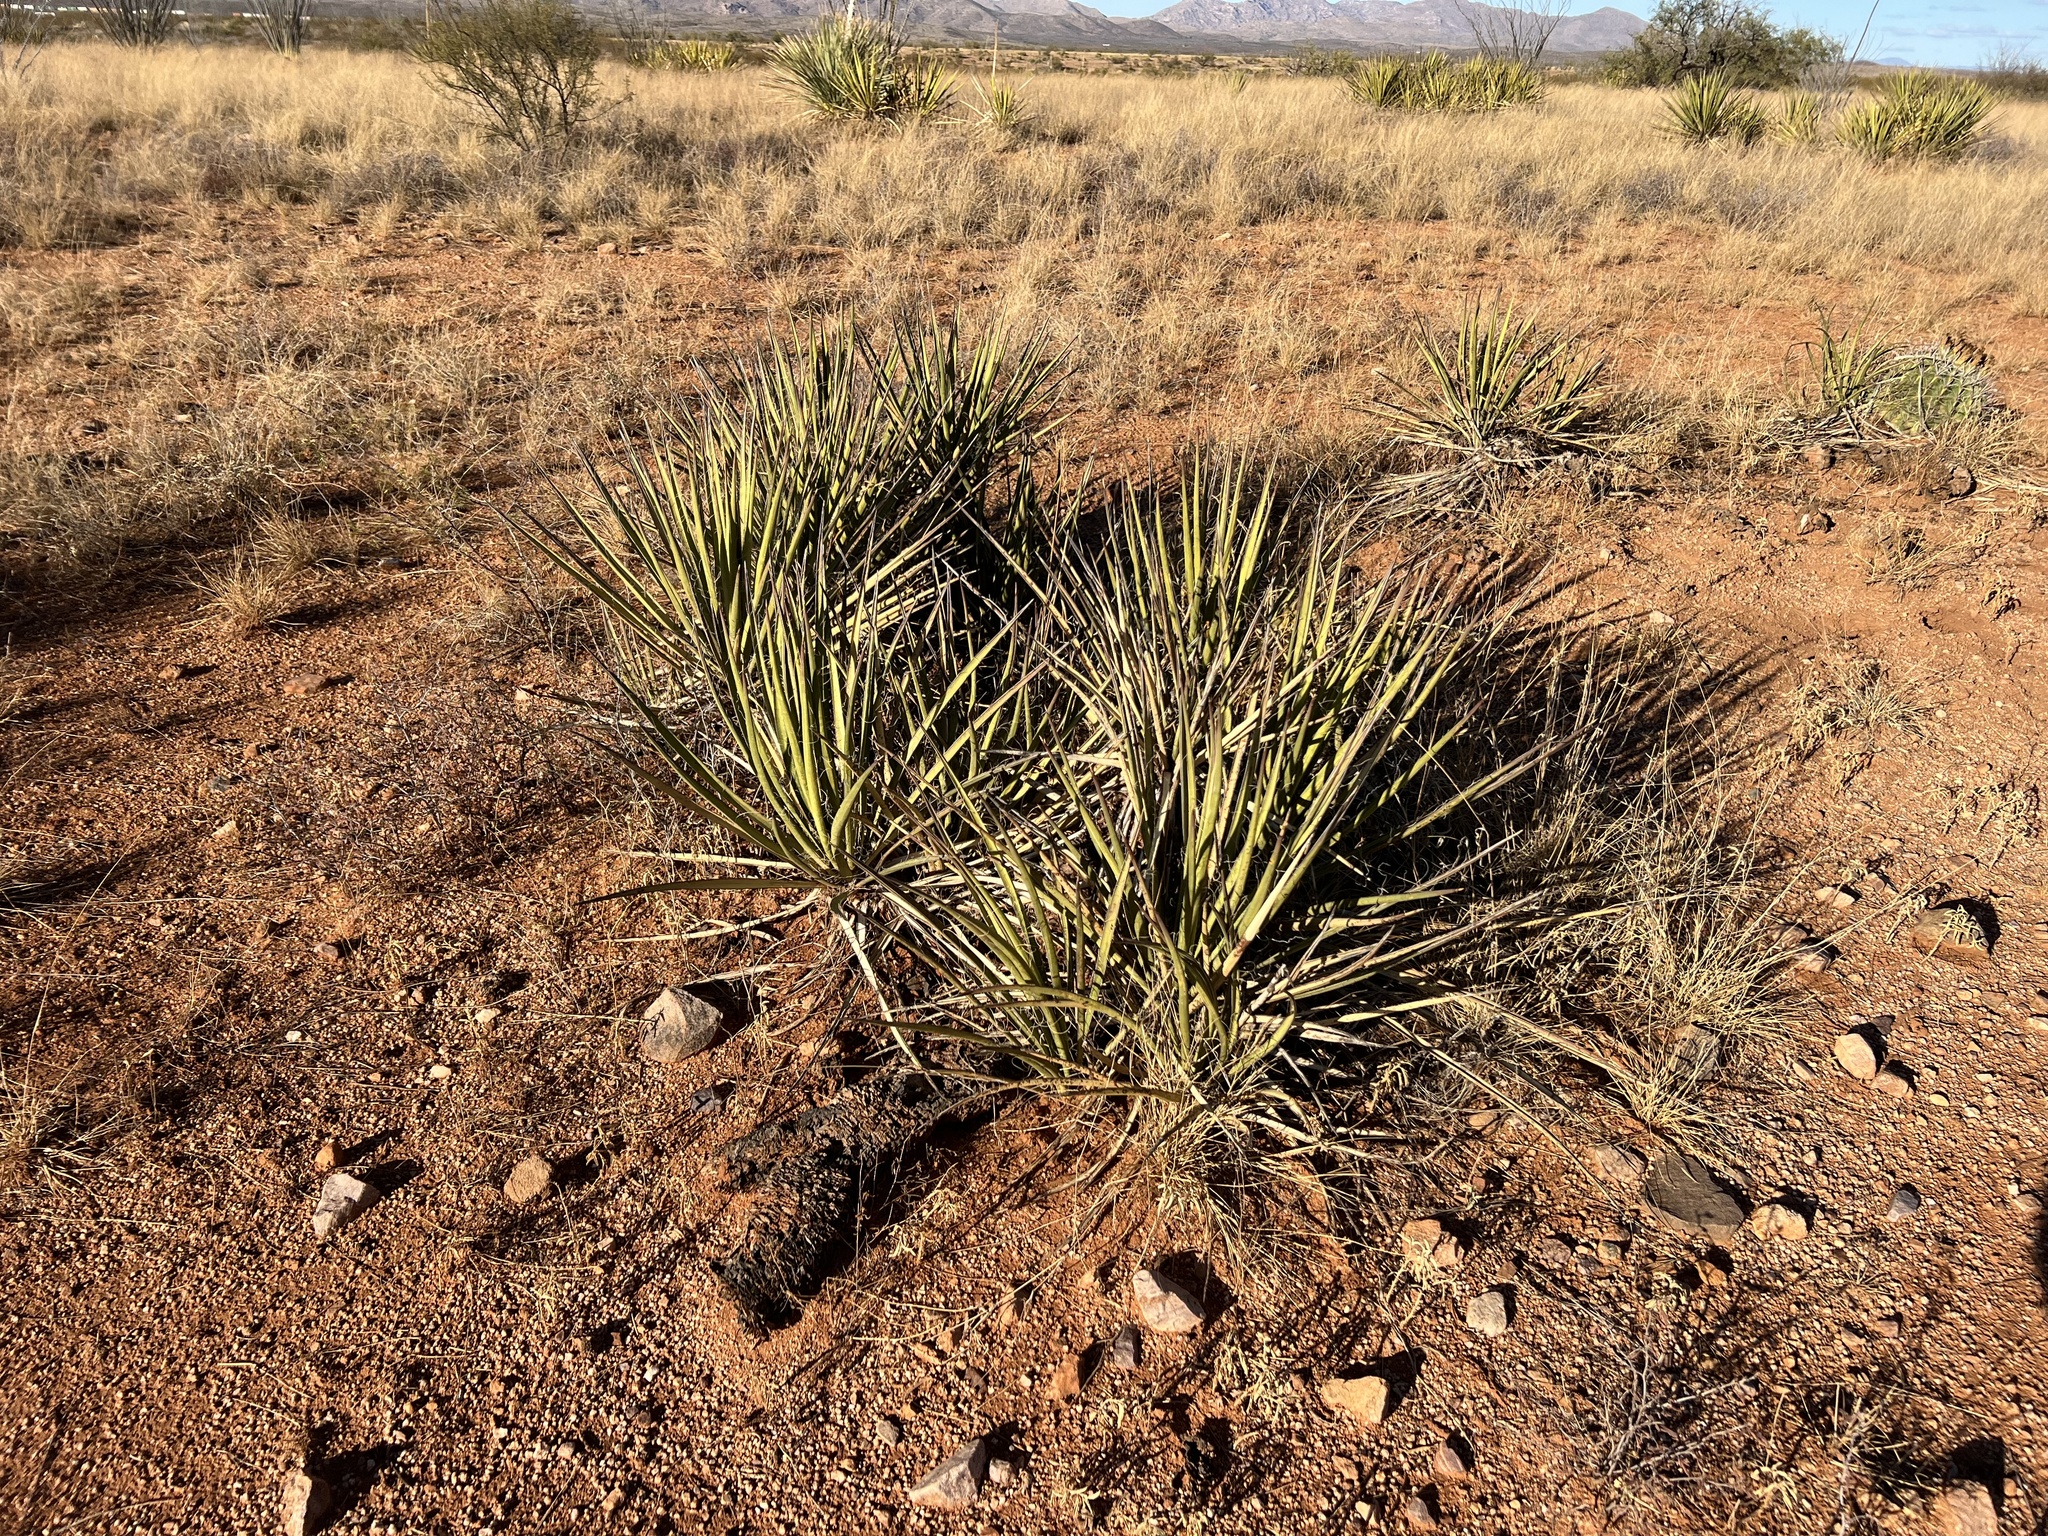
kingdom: Plantae
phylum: Tracheophyta
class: Liliopsida
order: Asparagales
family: Asparagaceae
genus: Yucca
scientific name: Yucca baccata
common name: Banana yucca
